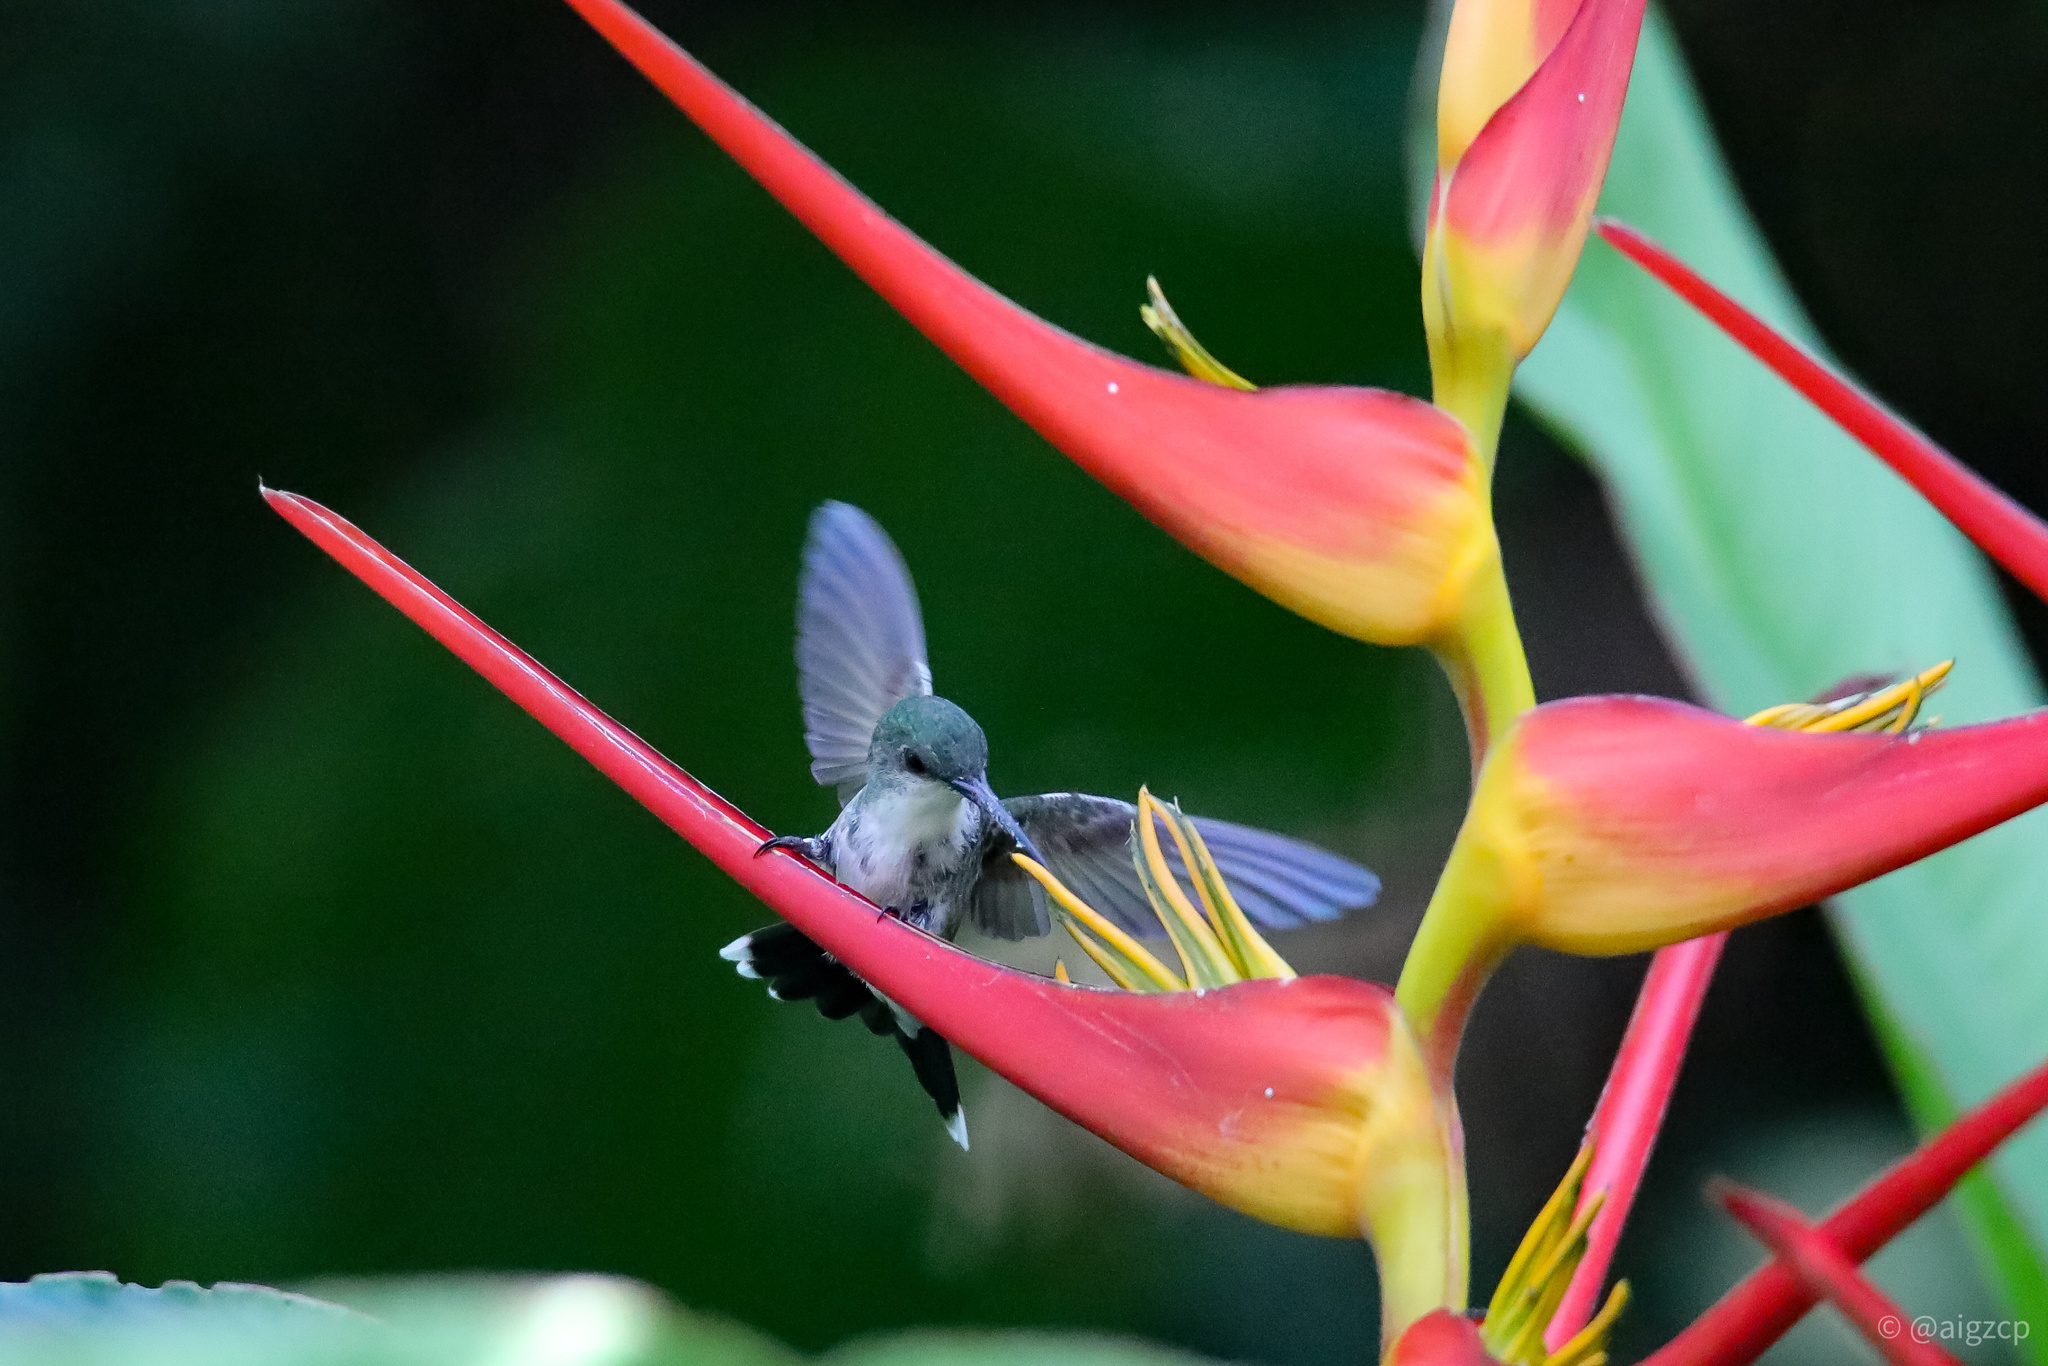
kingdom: Animalia
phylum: Chordata
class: Aves
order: Apodiformes
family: Trochilidae
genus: Chalybura
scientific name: Chalybura buffonii
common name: White-vented plumeleteer
